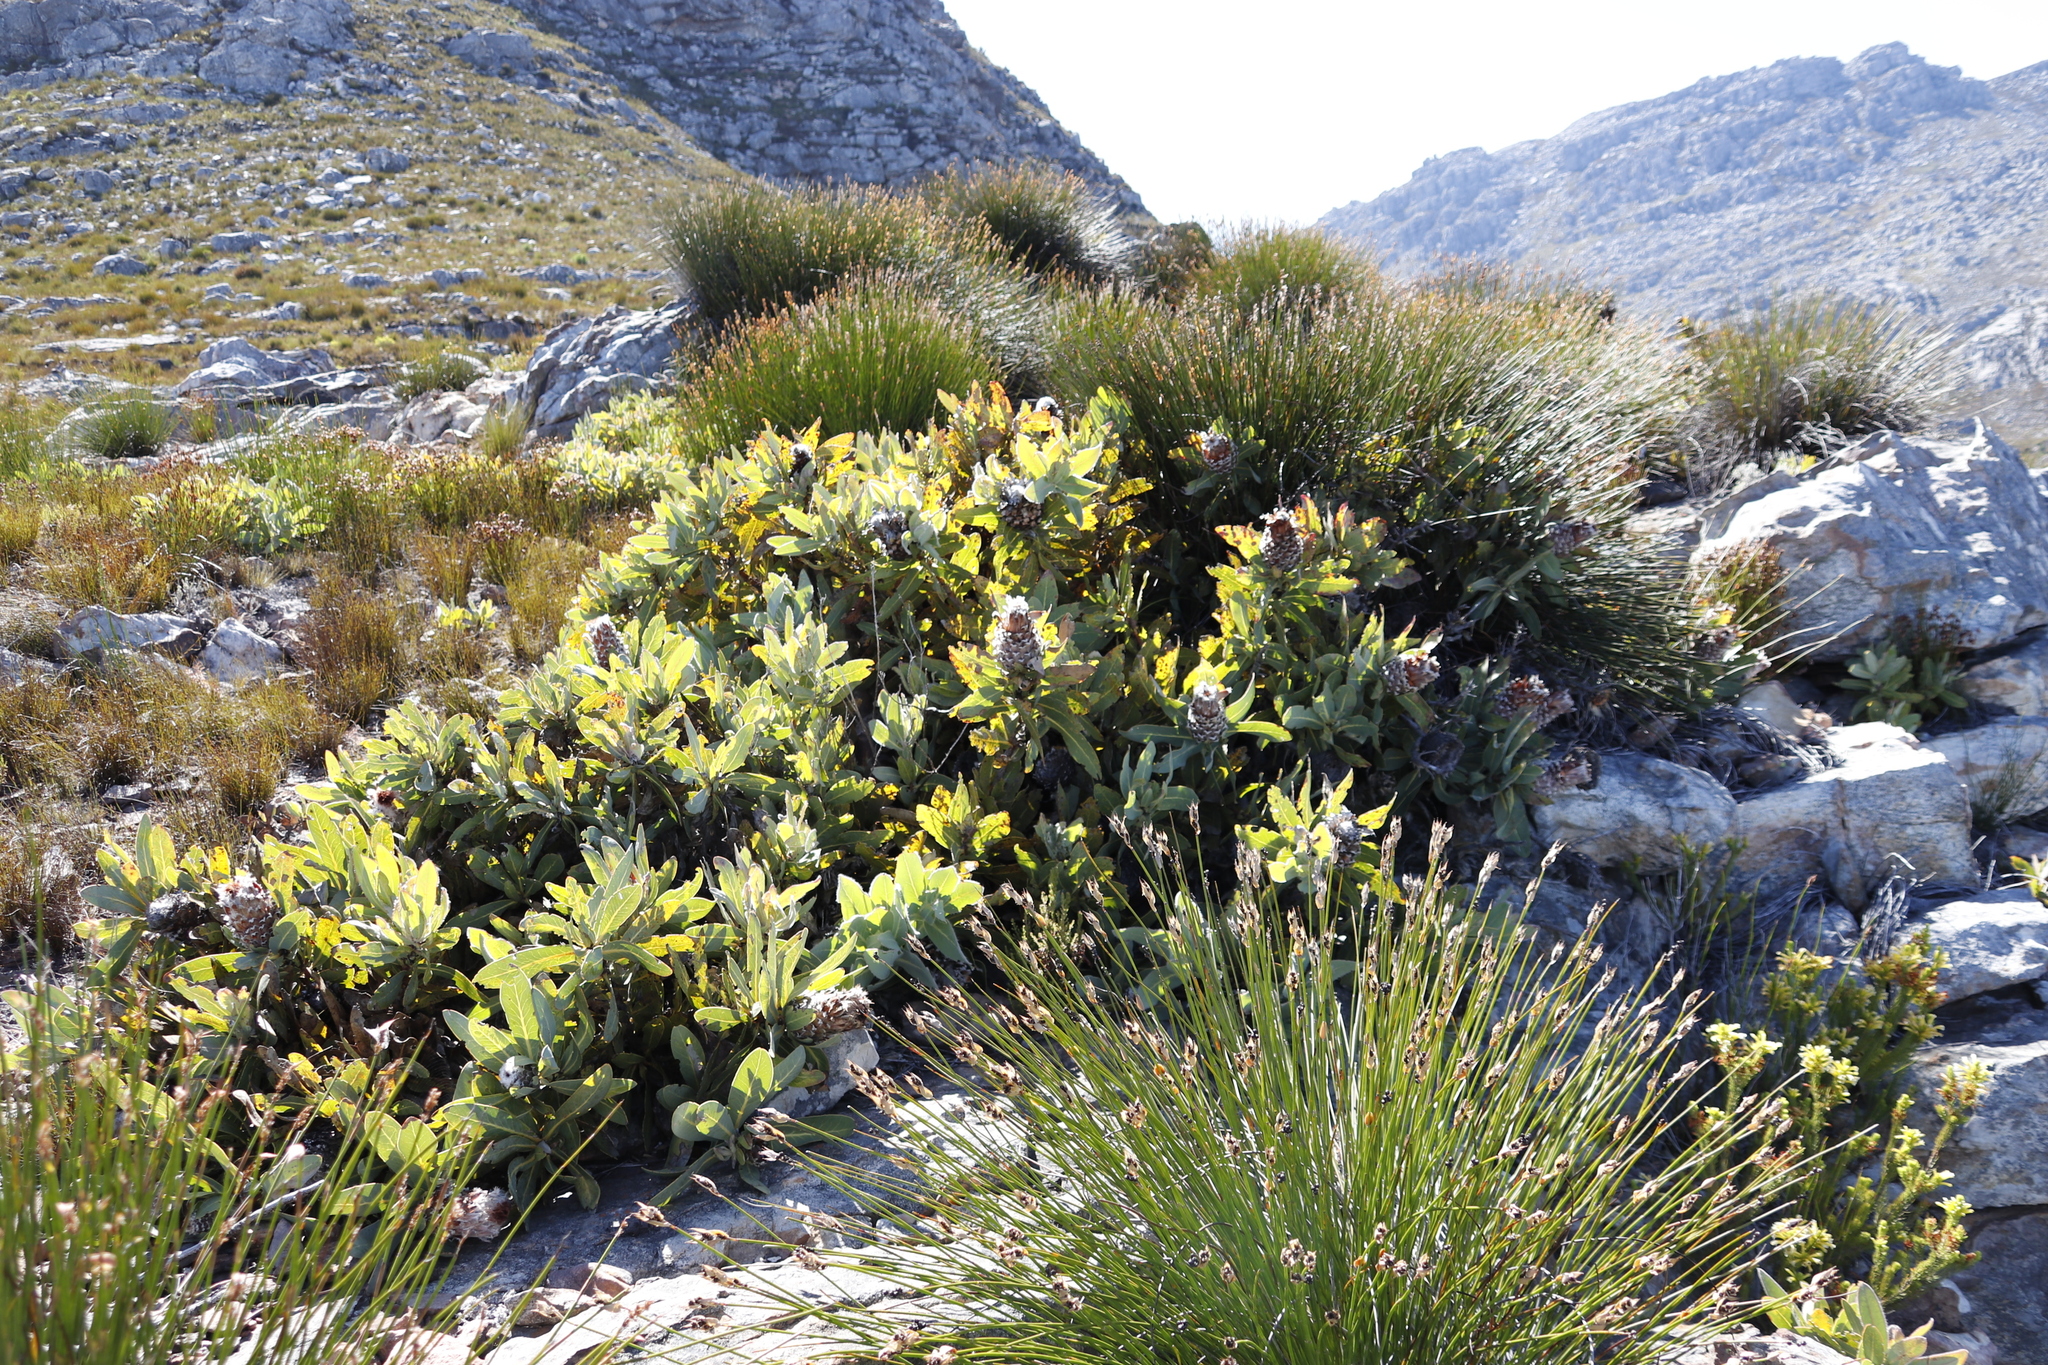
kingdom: Plantae
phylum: Tracheophyta
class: Magnoliopsida
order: Proteales
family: Proteaceae
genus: Protea
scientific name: Protea magnifica
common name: Bearded sugarbush
